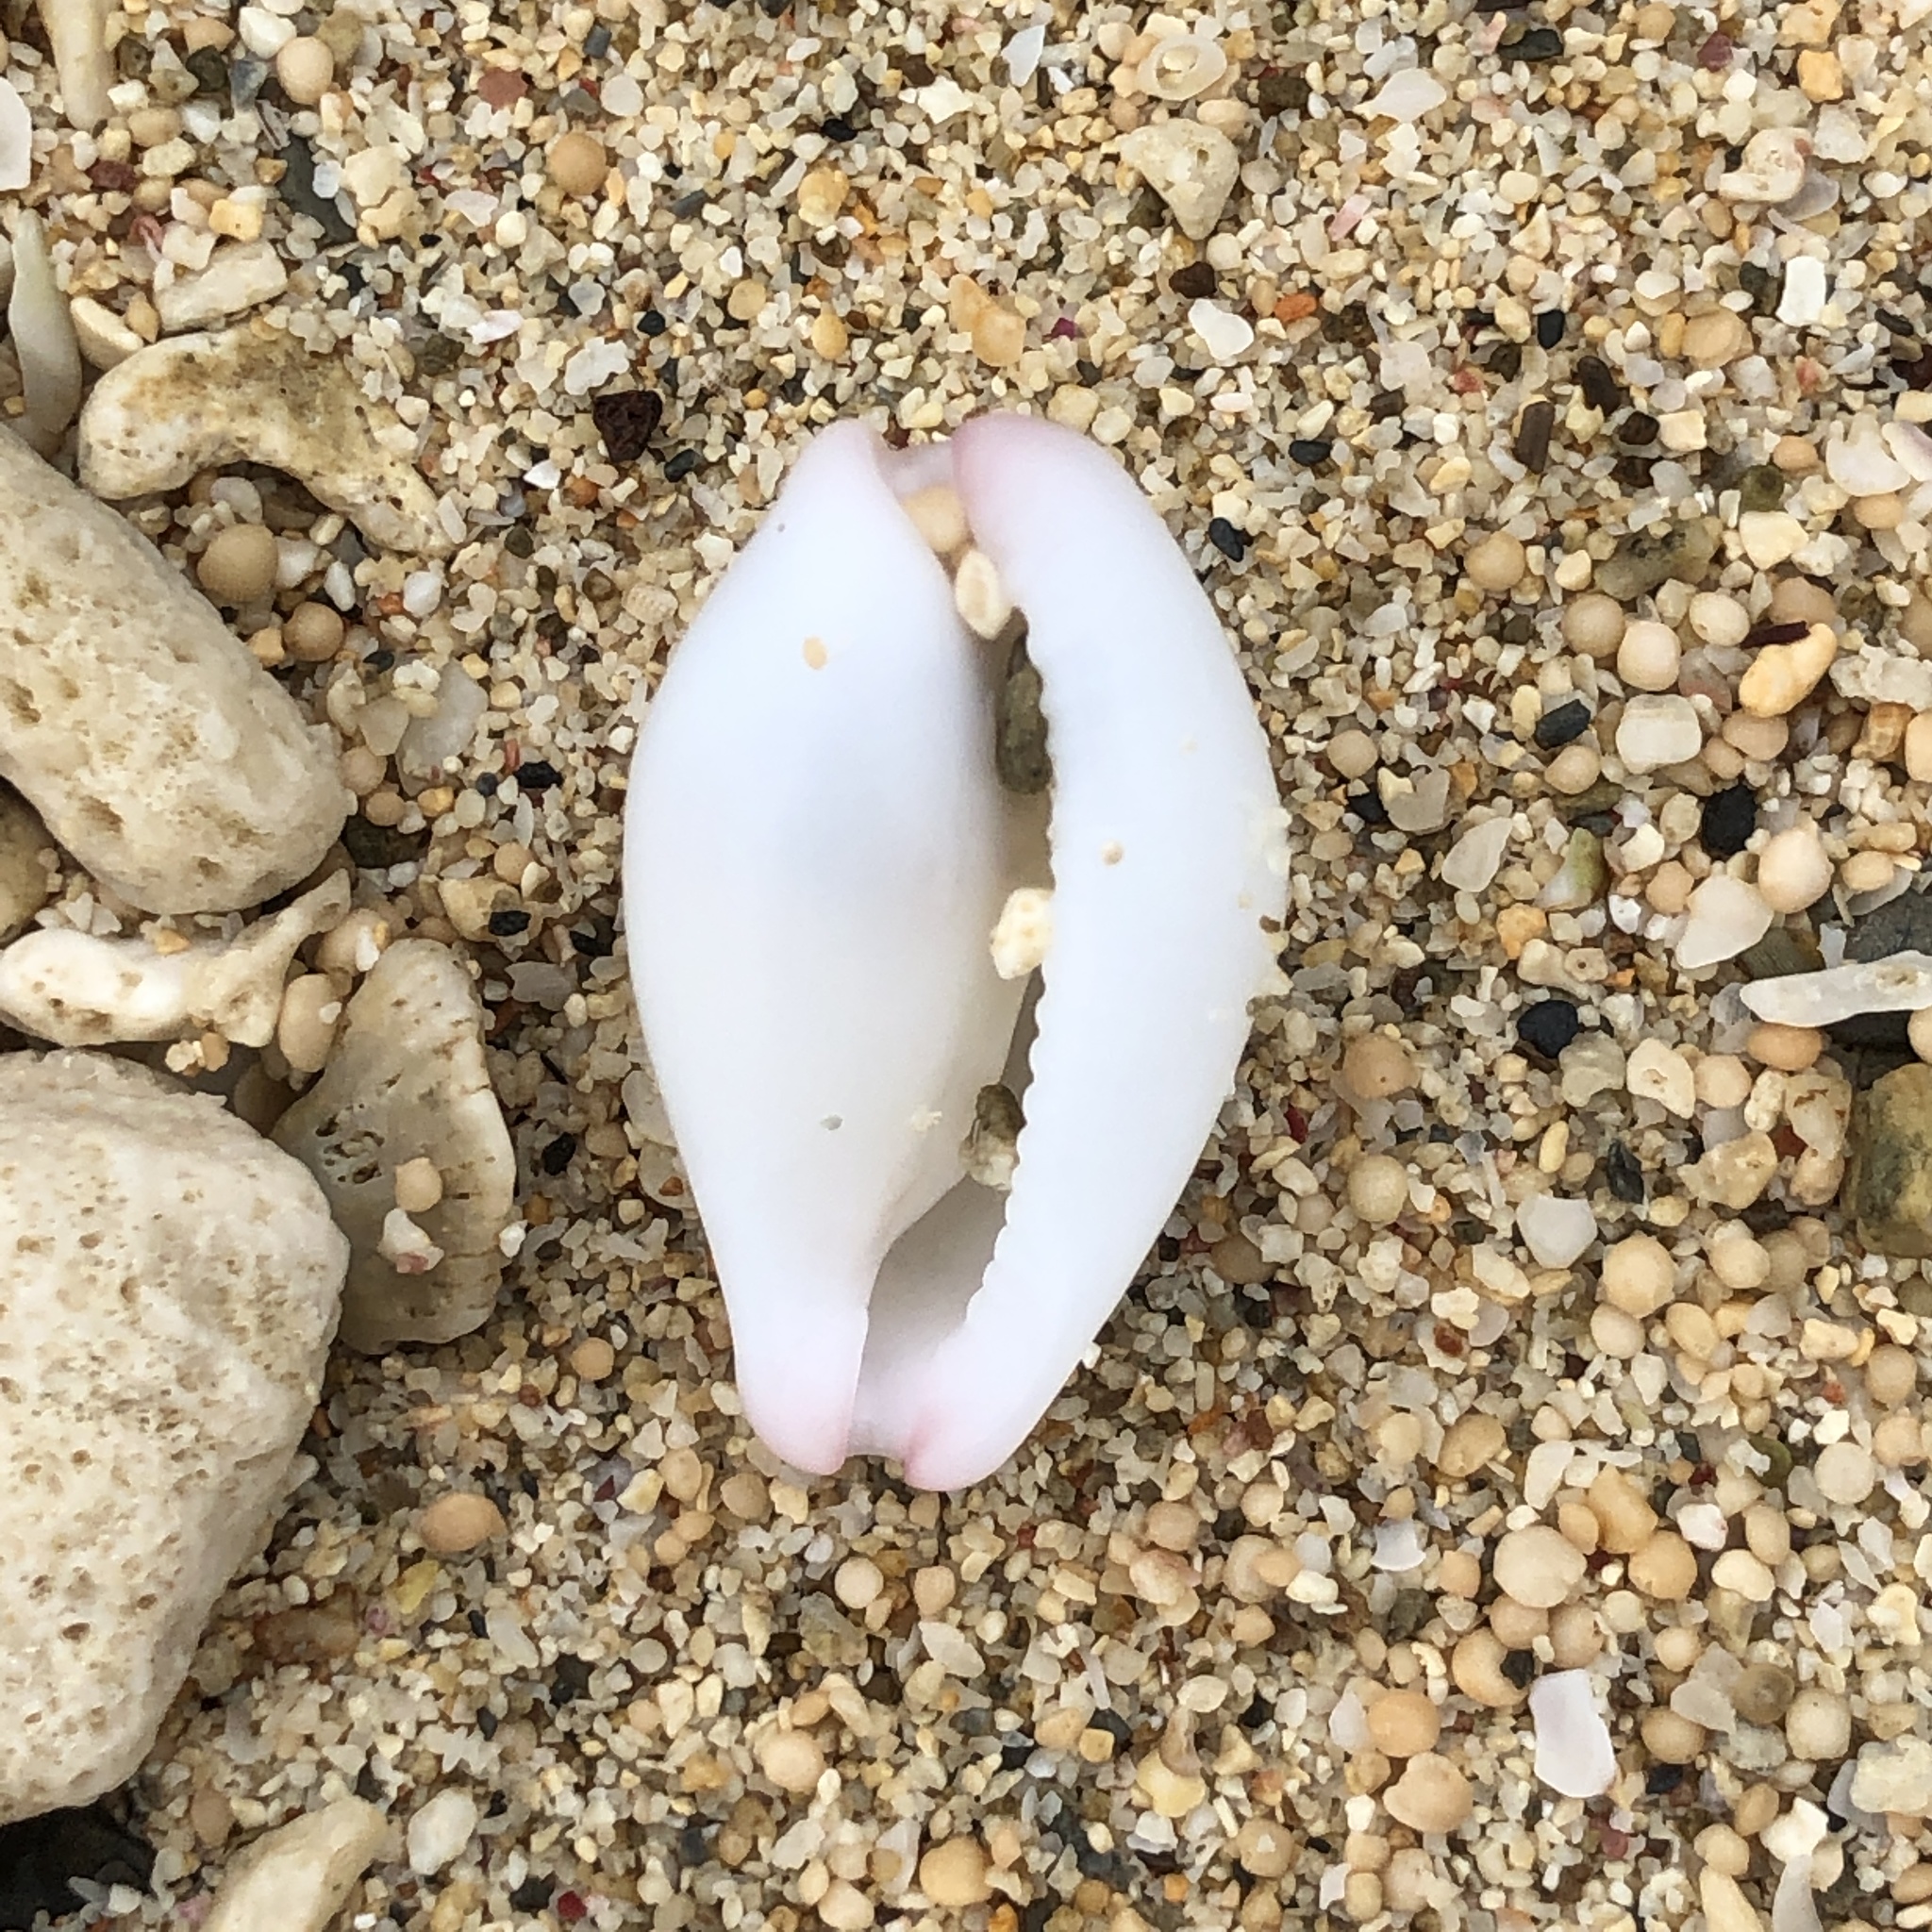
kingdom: Animalia
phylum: Mollusca
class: Gastropoda
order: Littorinimorpha
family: Ovulidae
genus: Calpurnus
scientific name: Calpurnus verrucosus
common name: Common calpurnus
